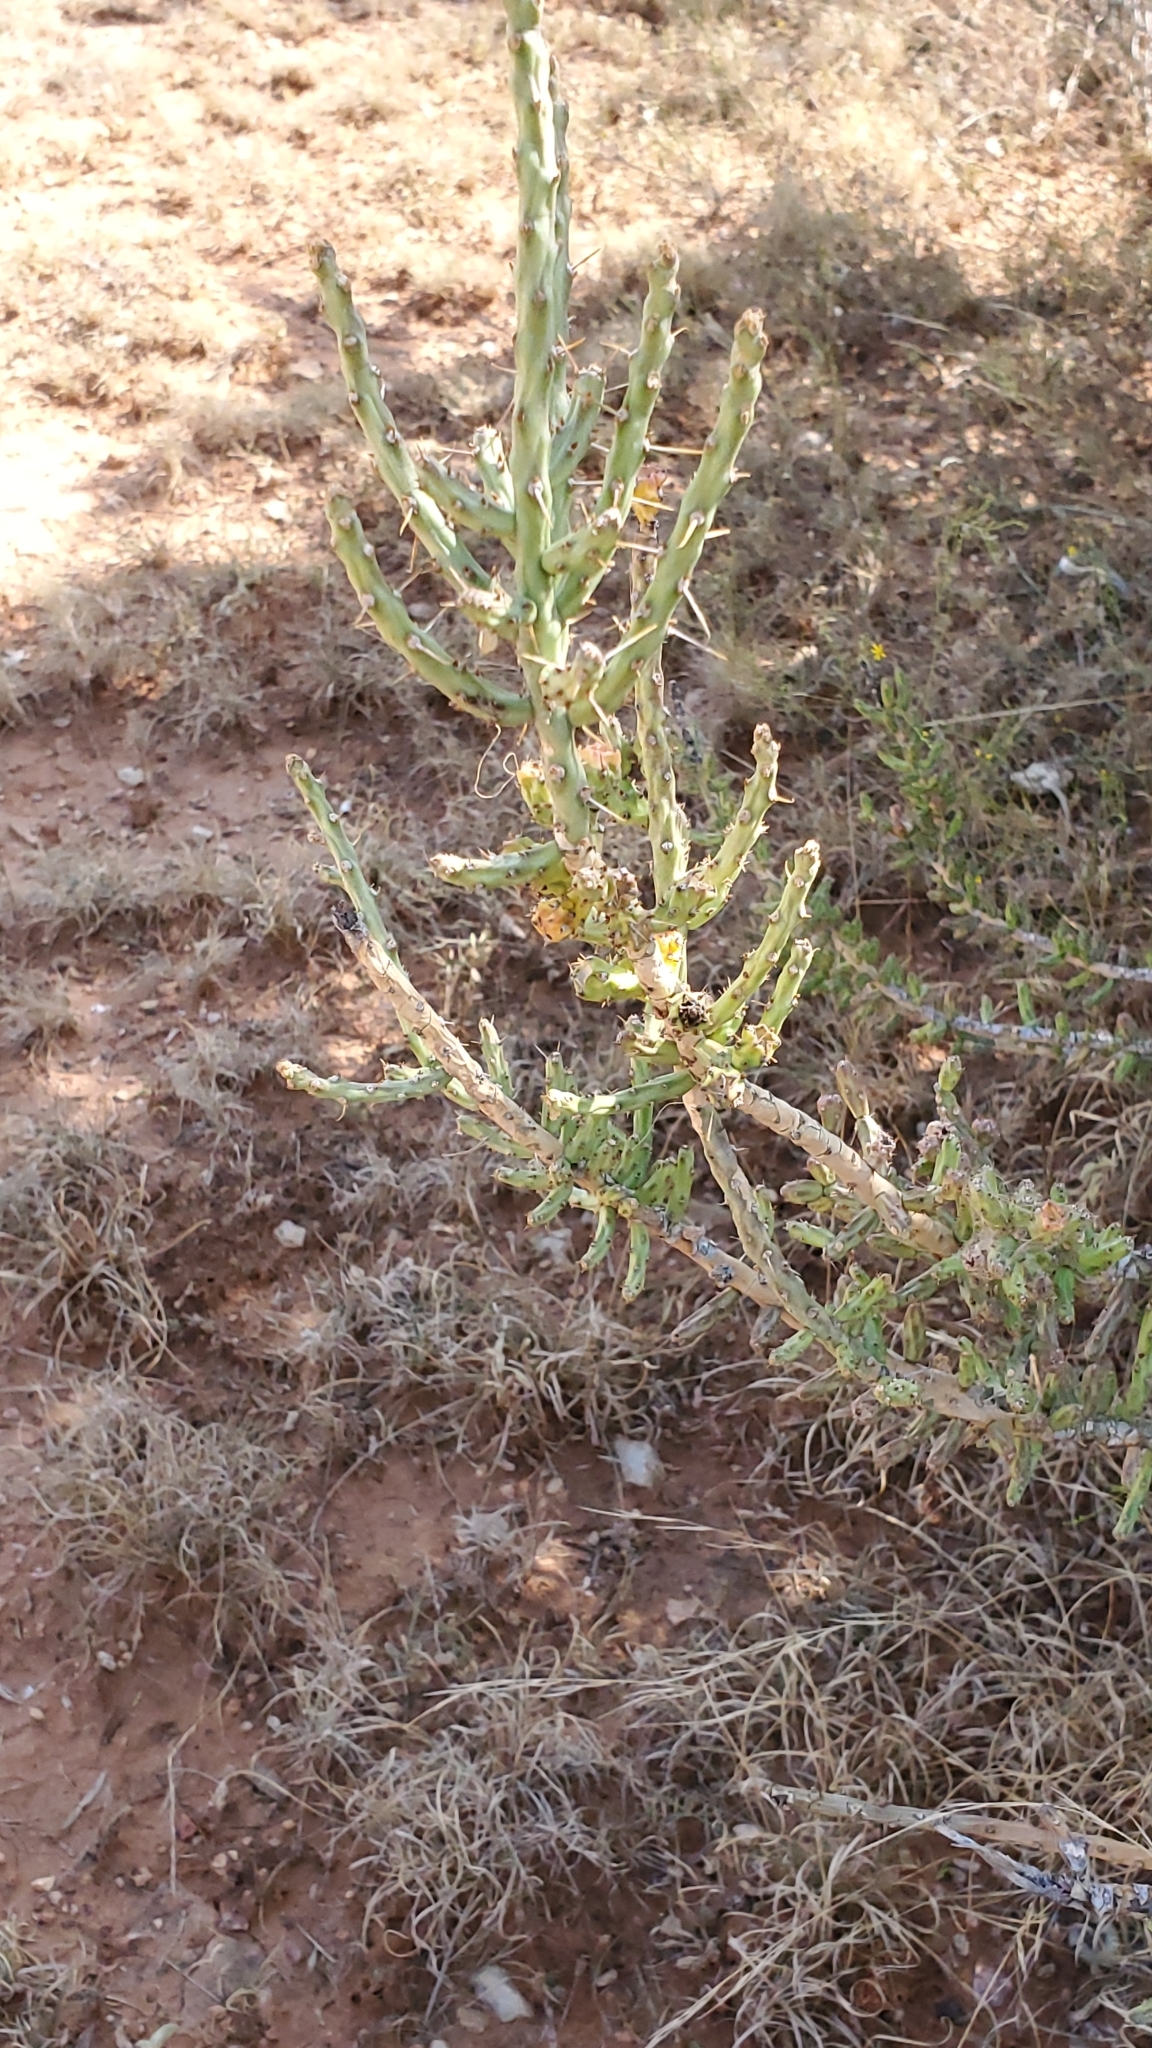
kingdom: Plantae
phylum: Tracheophyta
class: Magnoliopsida
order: Caryophyllales
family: Cactaceae
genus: Cylindropuntia
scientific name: Cylindropuntia leptocaulis
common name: Christmas cactus
